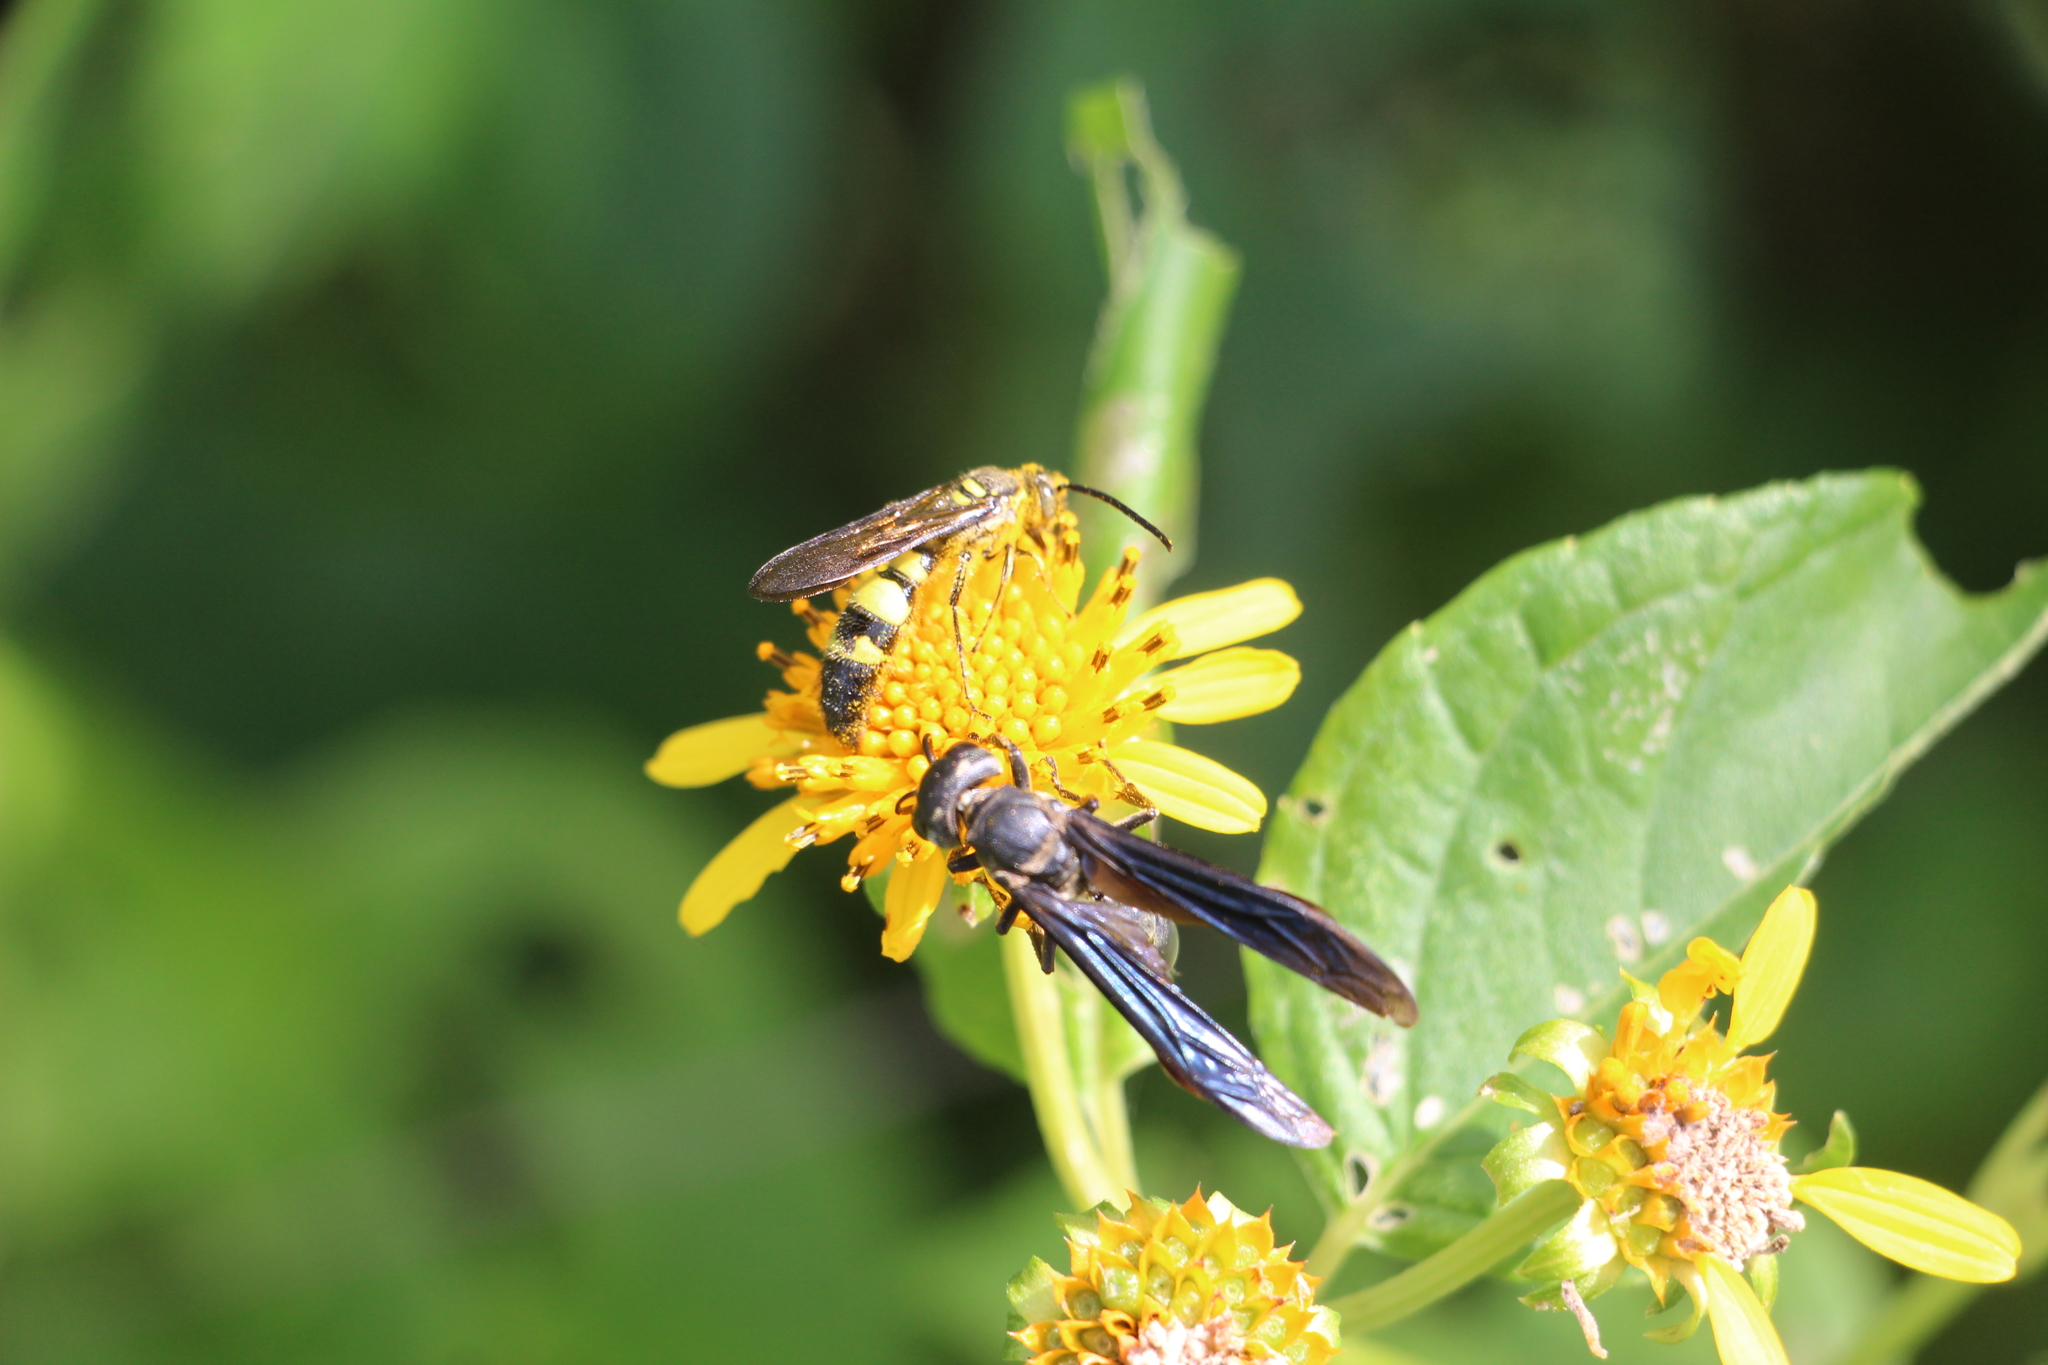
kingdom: Animalia
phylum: Arthropoda
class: Insecta
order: Hymenoptera
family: Vespidae
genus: Synoeca
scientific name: Synoeca septentrionalis
